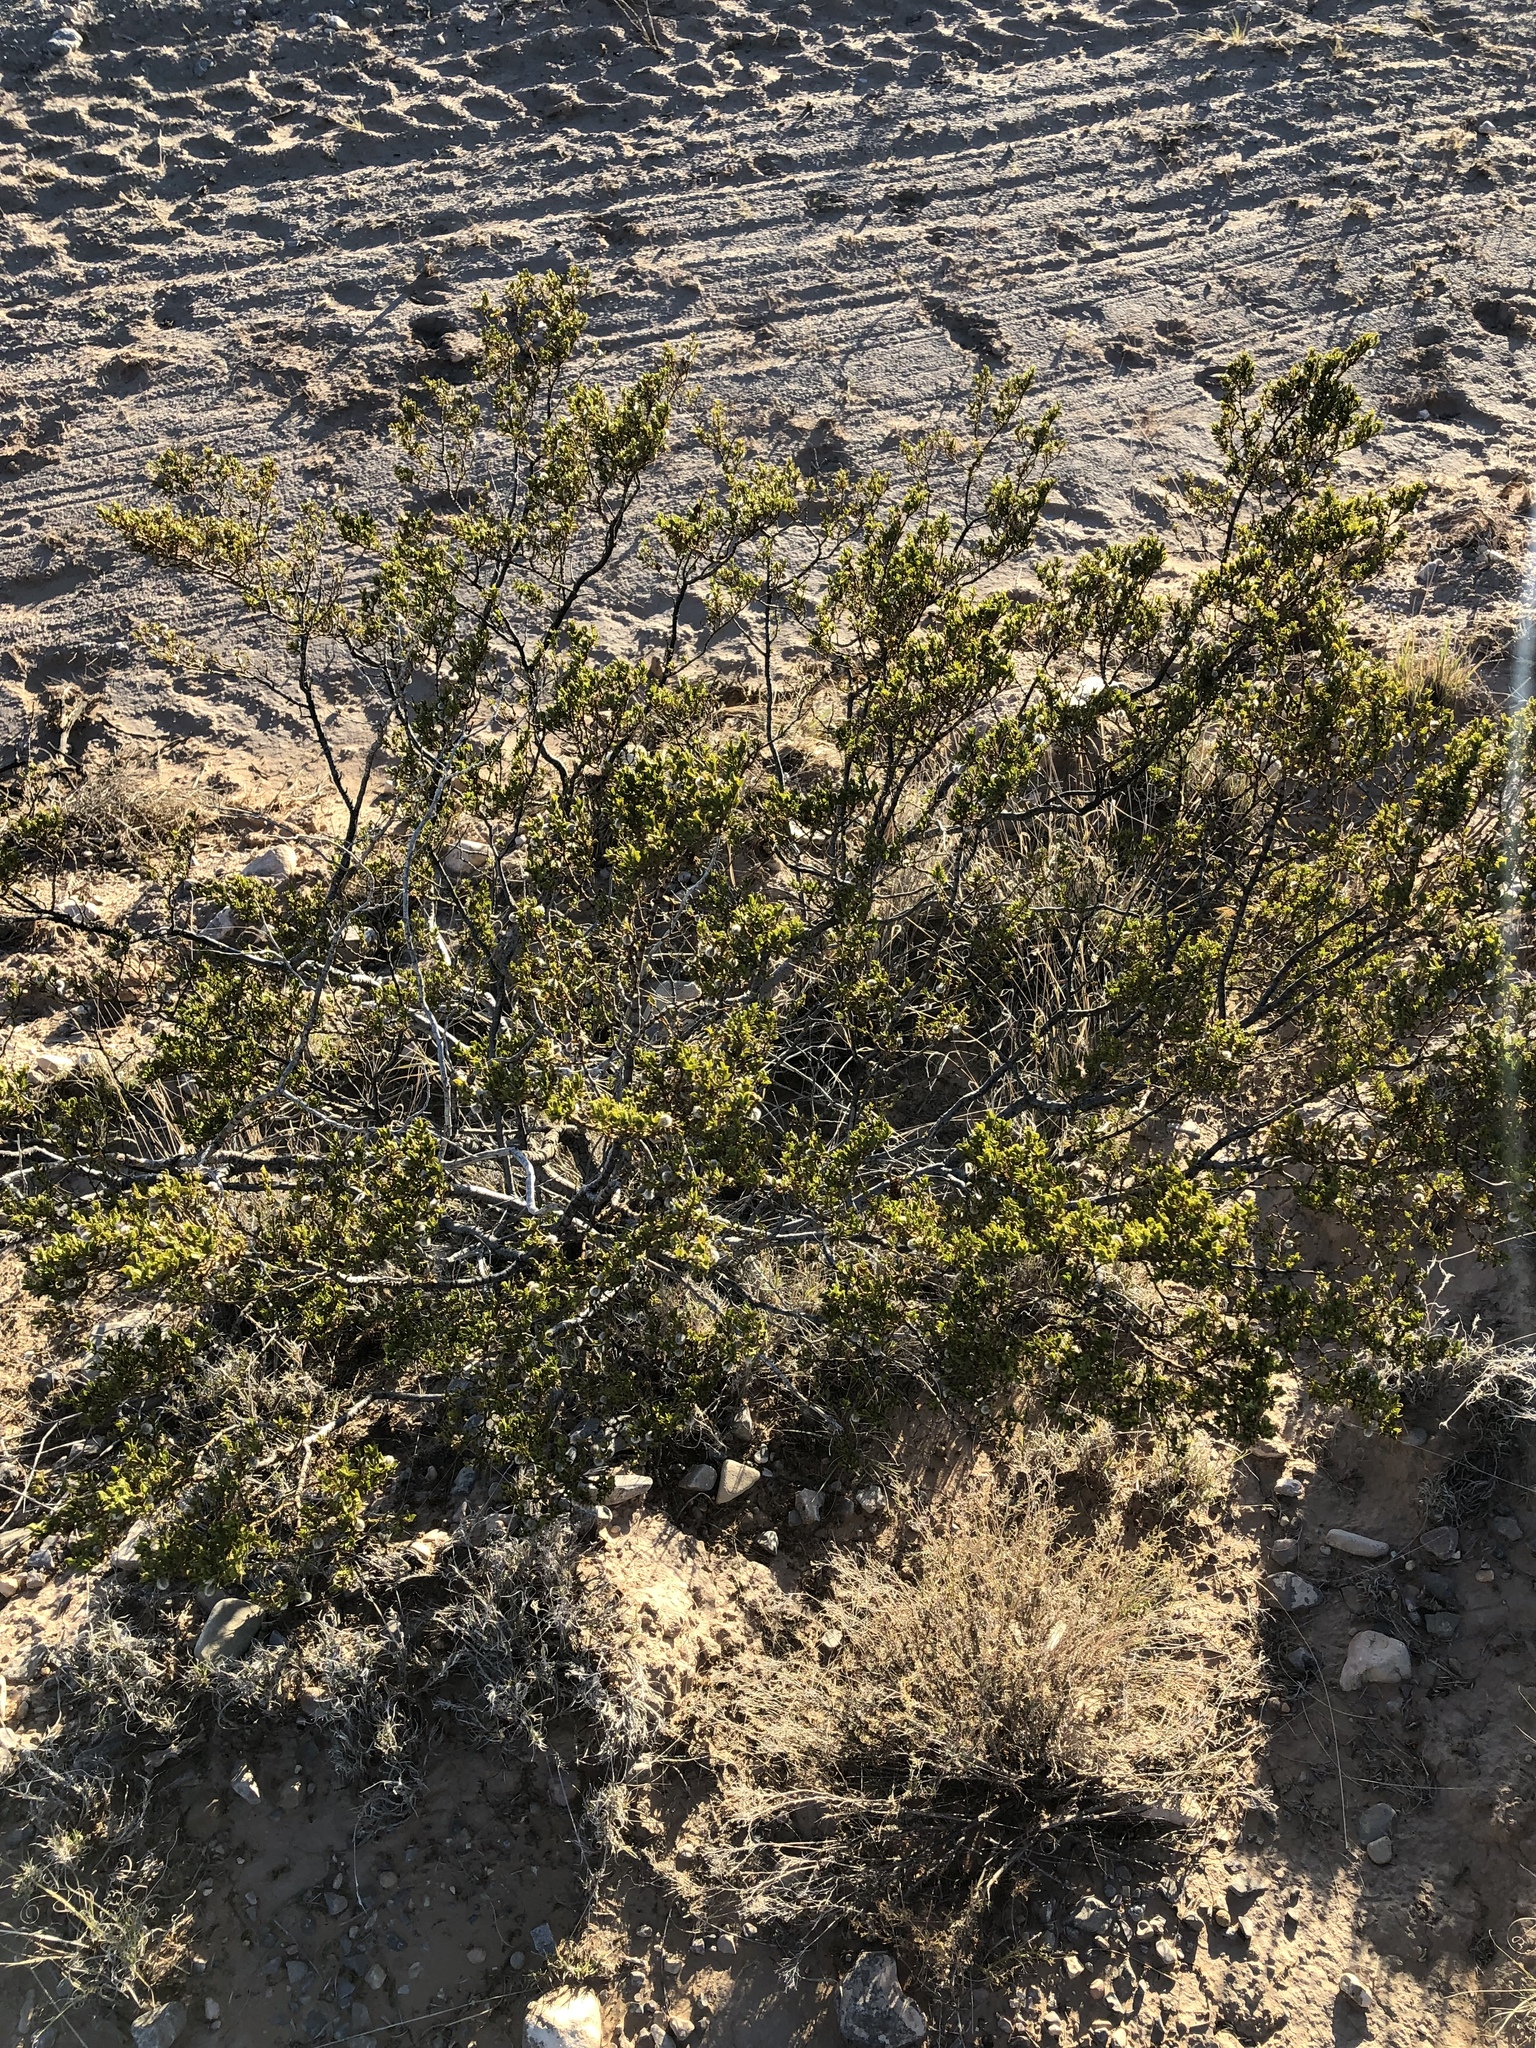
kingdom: Plantae
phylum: Tracheophyta
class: Magnoliopsida
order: Zygophyllales
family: Zygophyllaceae
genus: Larrea
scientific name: Larrea tridentata
